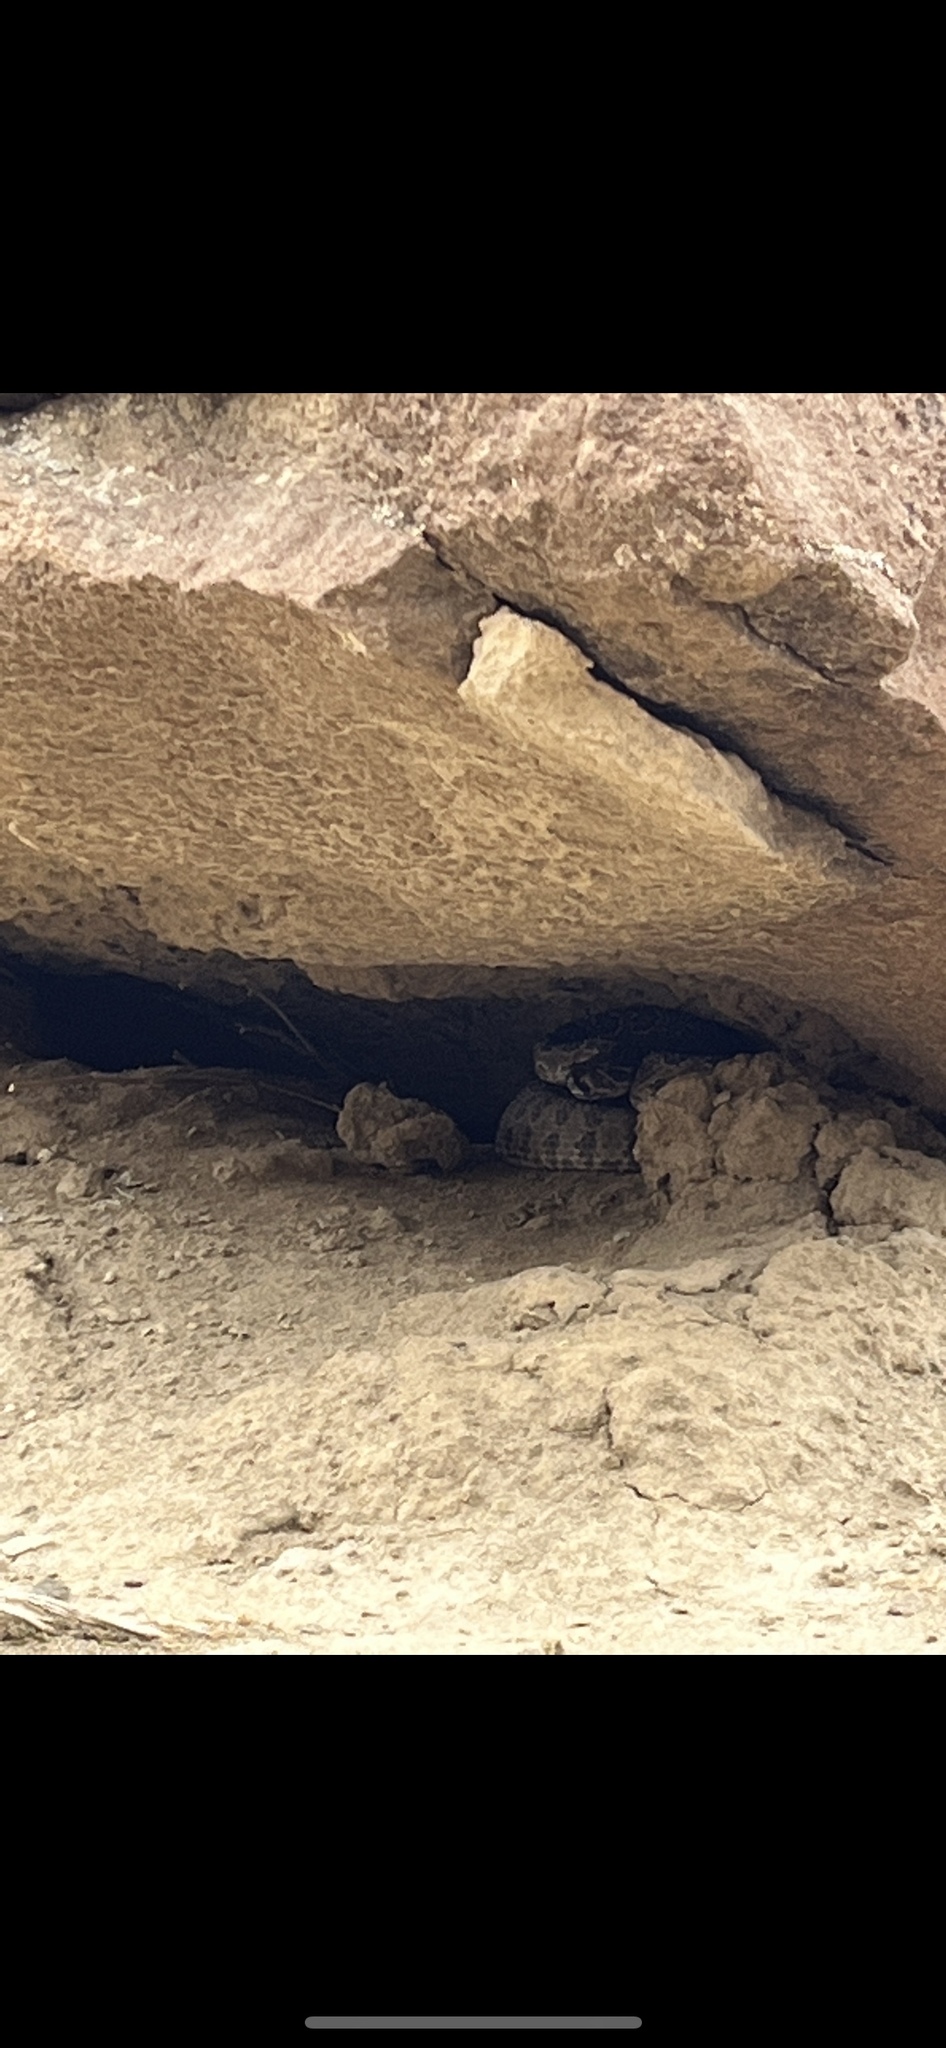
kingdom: Animalia
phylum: Chordata
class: Squamata
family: Viperidae
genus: Crotalus
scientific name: Crotalus viridis
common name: Prairie rattlesnake
